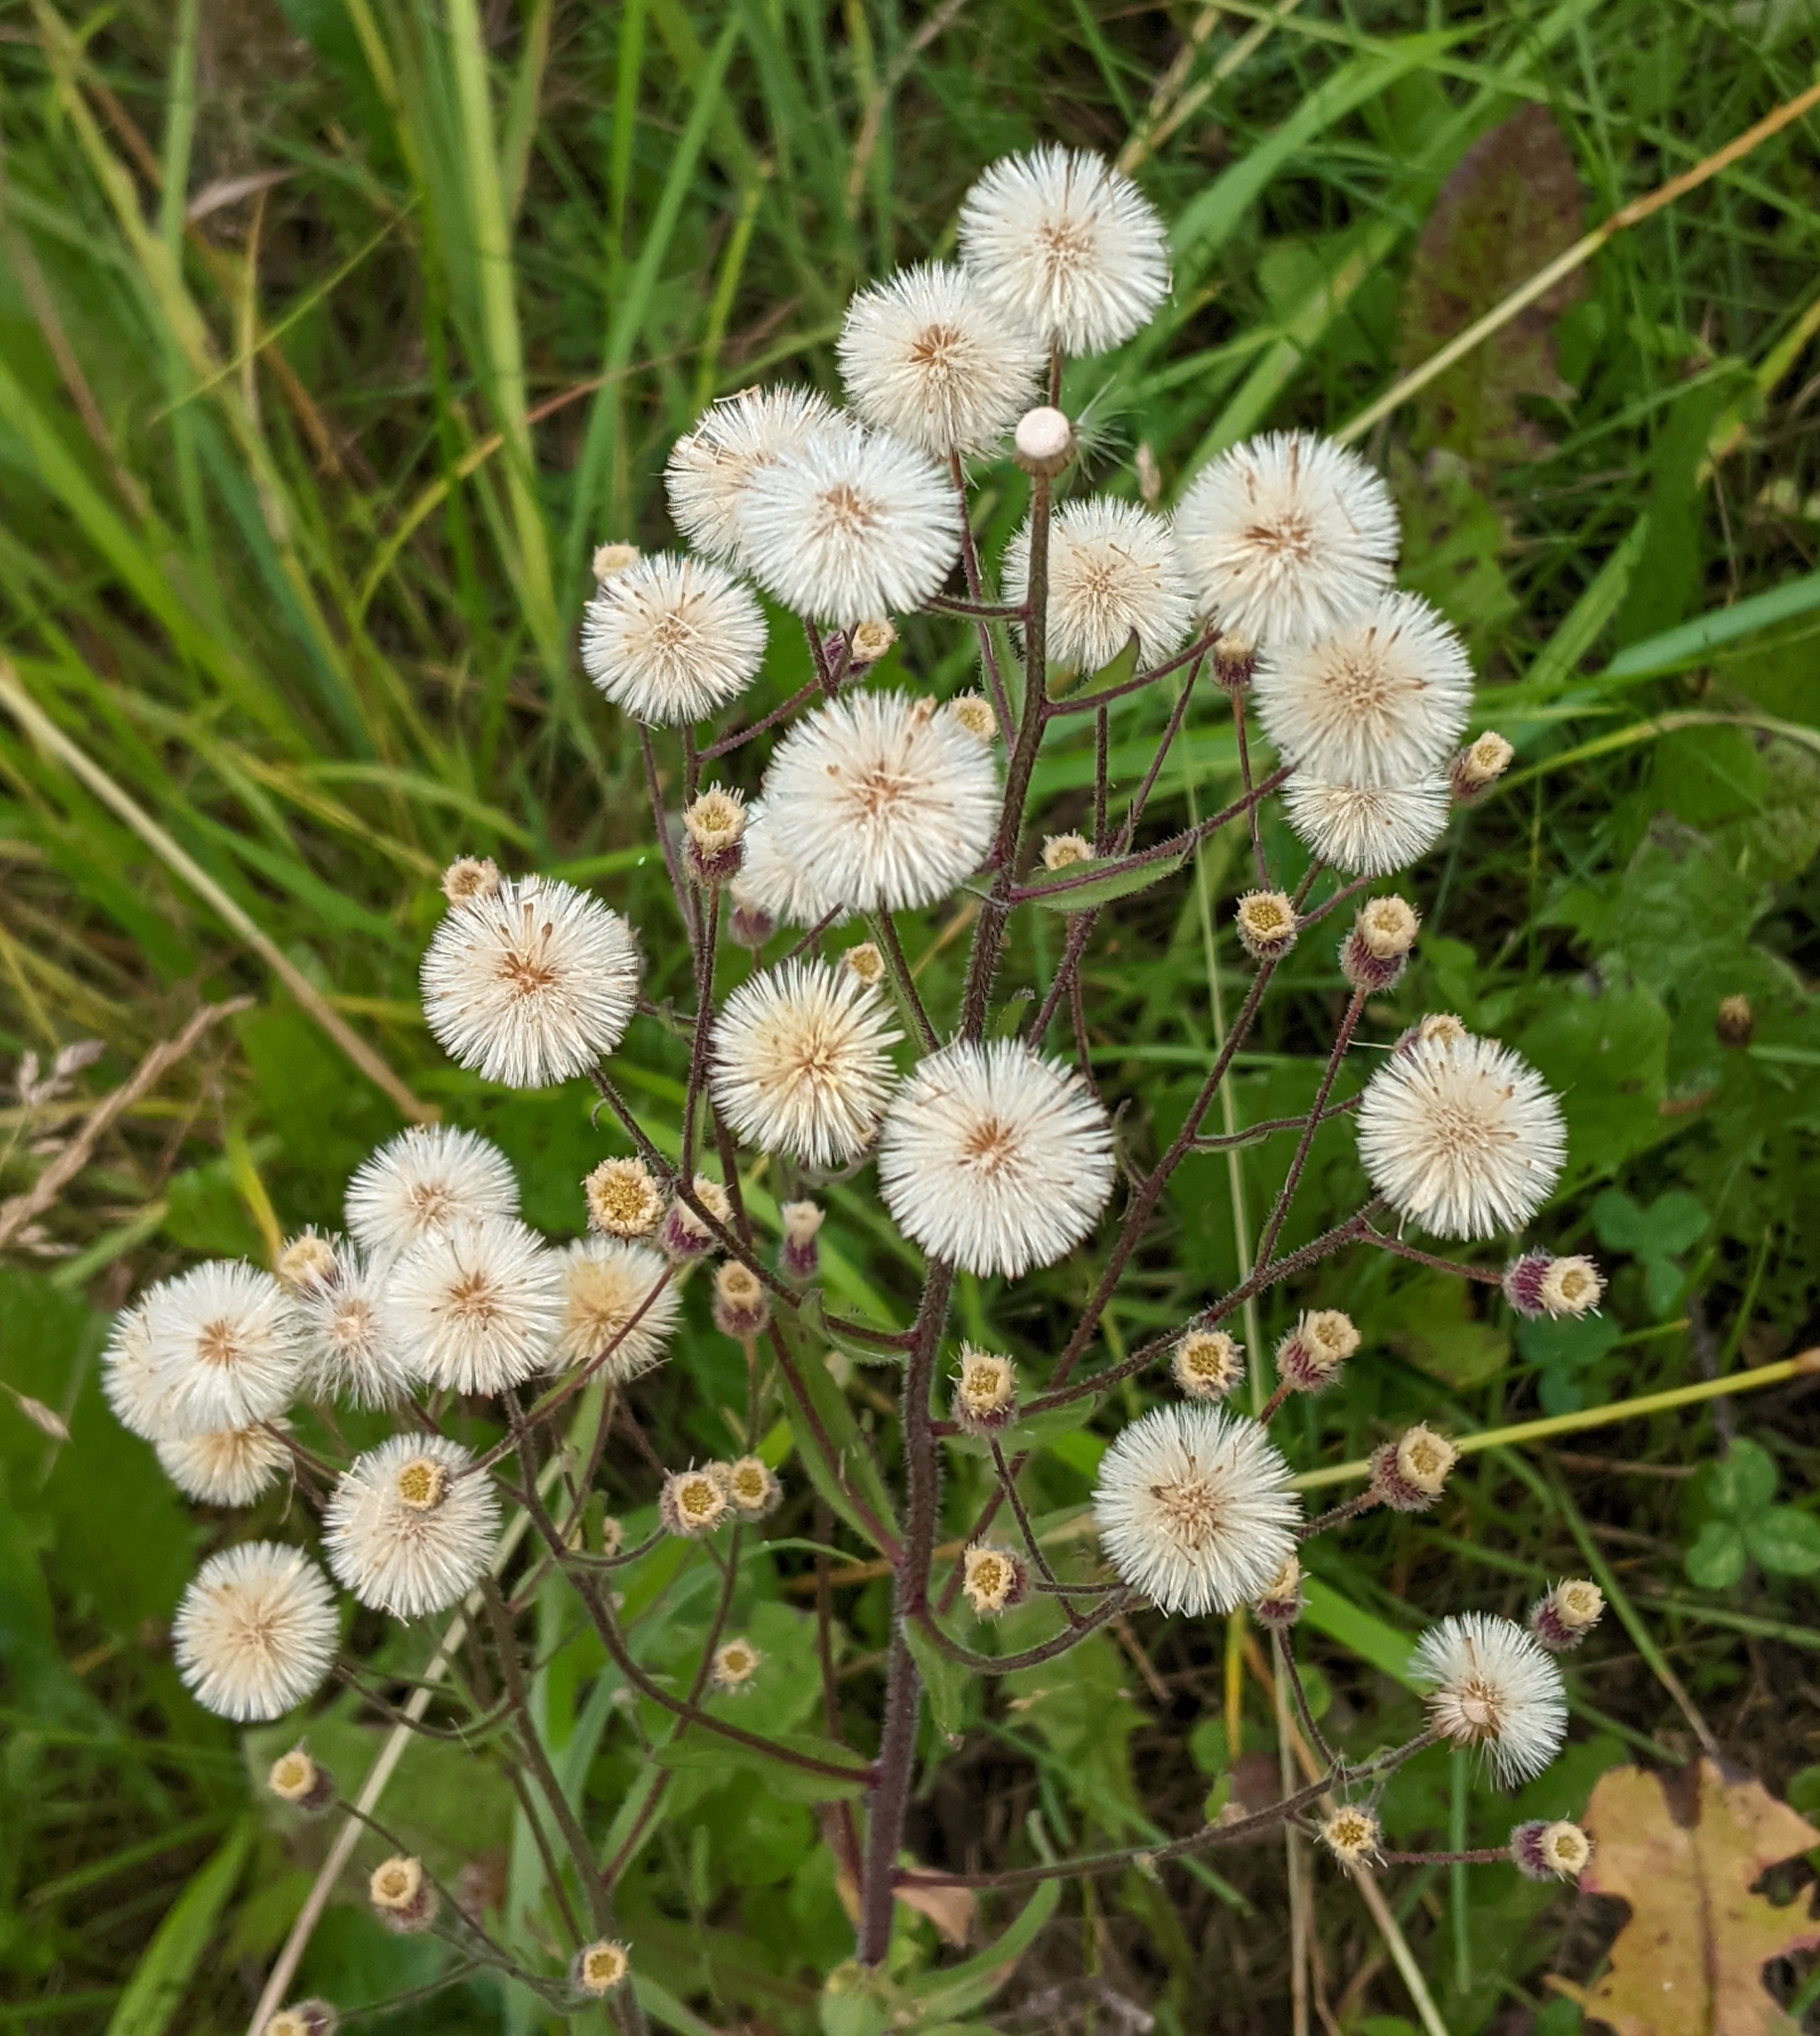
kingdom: Plantae
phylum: Tracheophyta
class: Magnoliopsida
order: Asterales
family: Asteraceae
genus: Erigeron
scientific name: Erigeron acris
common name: Blue fleabane
